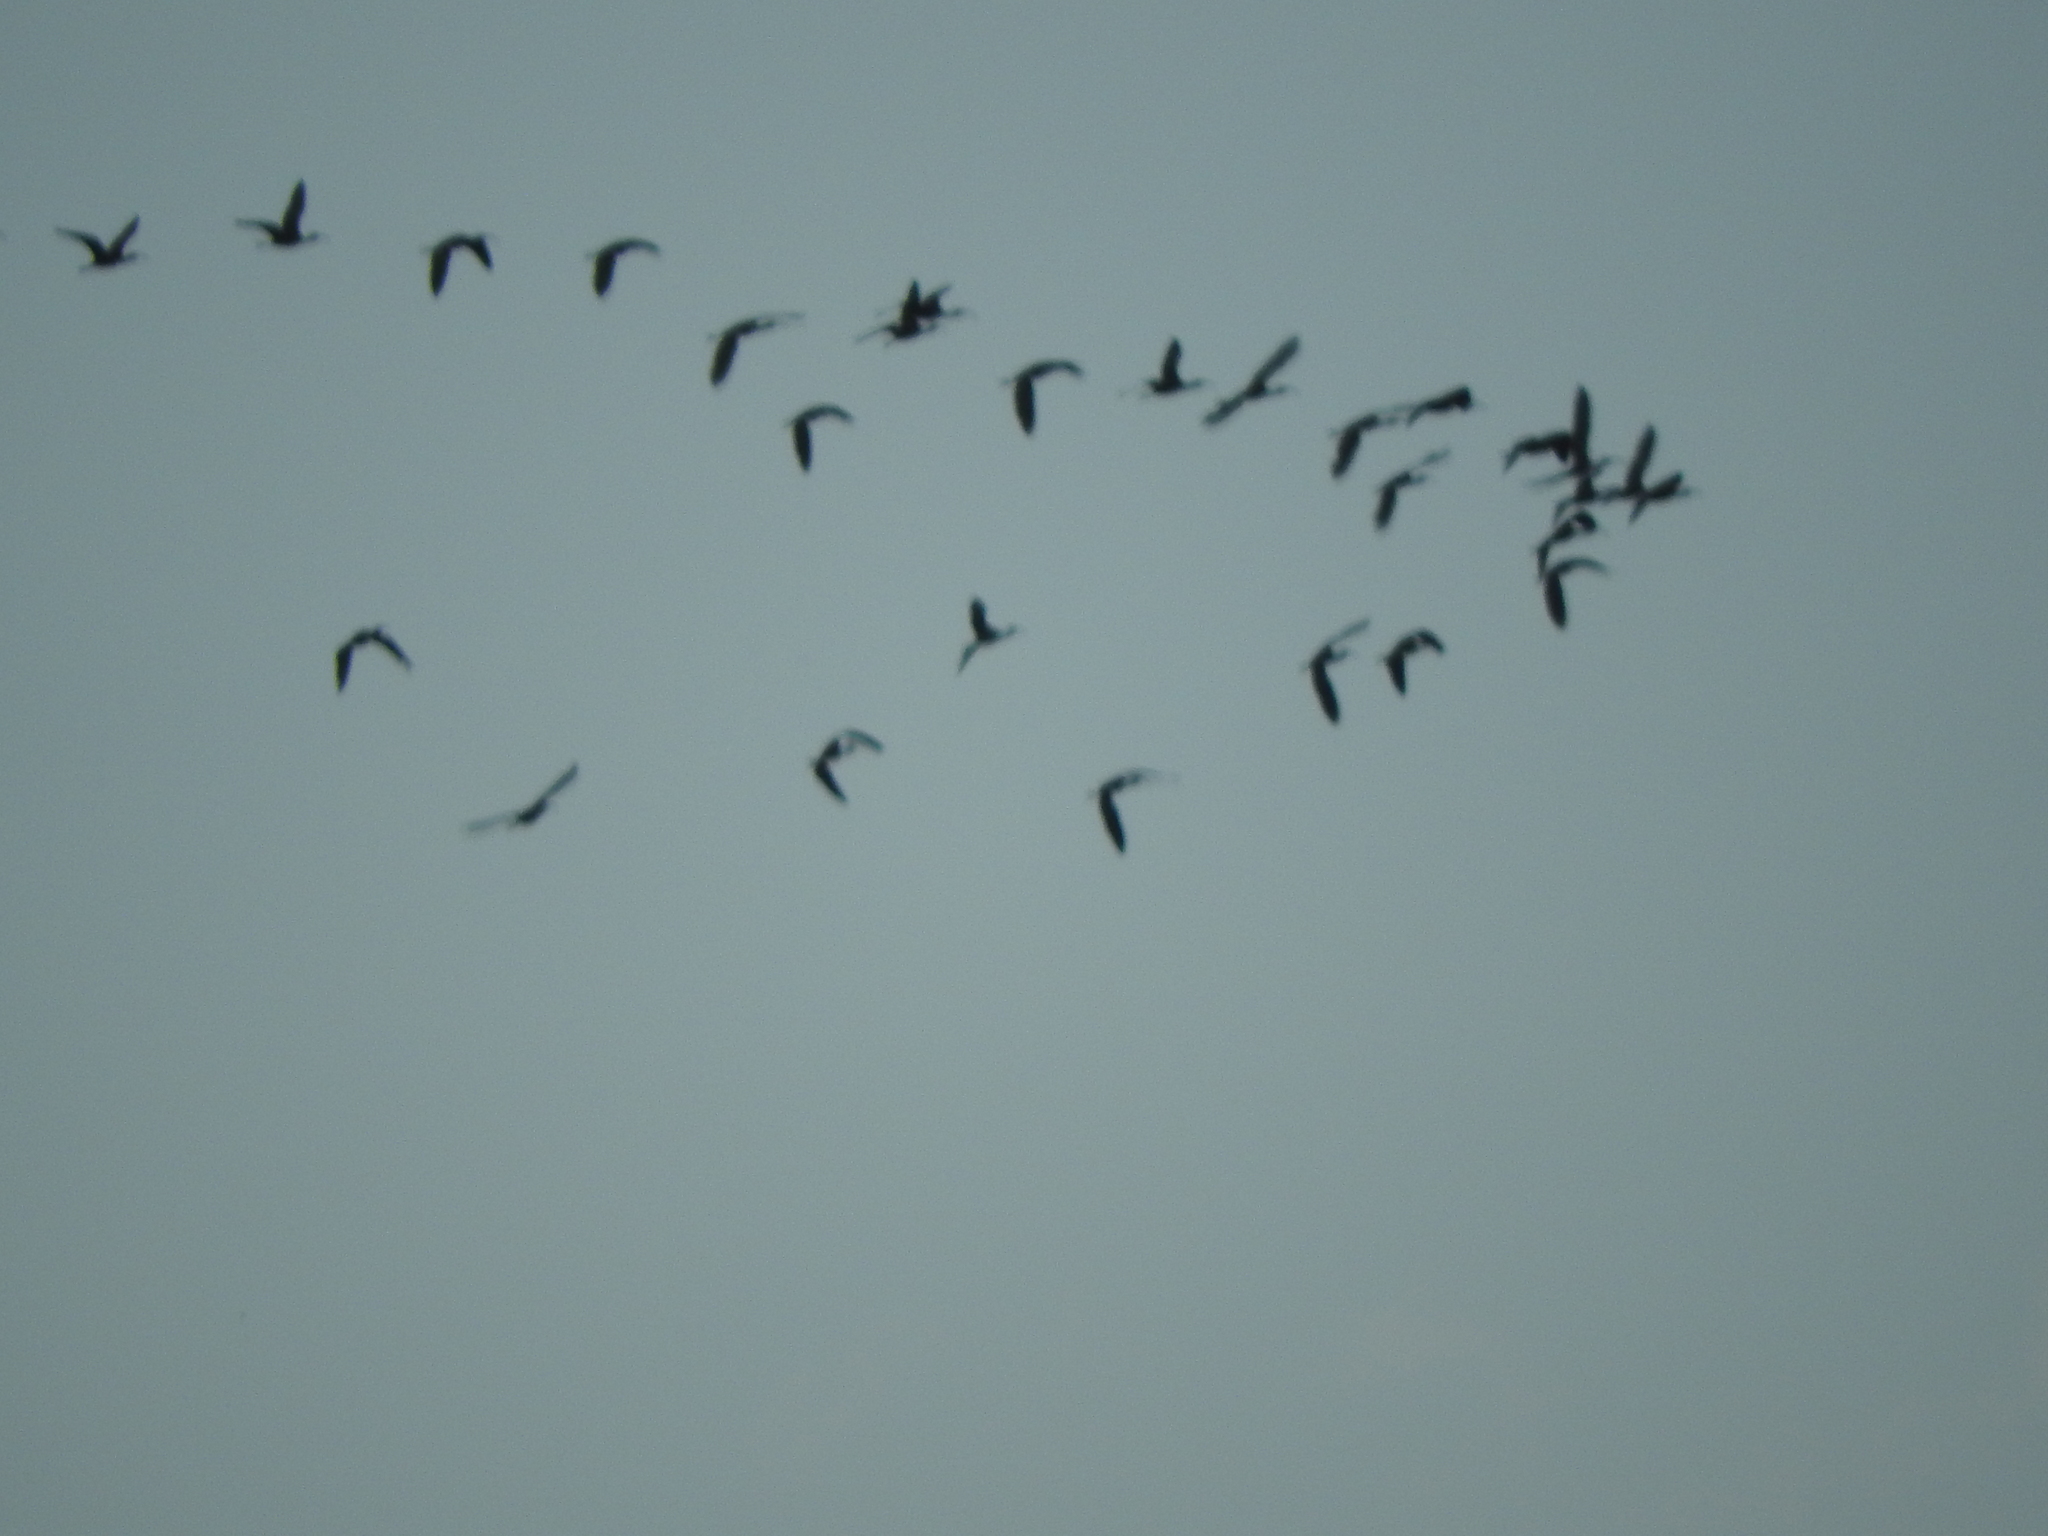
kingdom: Animalia
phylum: Chordata
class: Aves
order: Pelecaniformes
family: Threskiornithidae
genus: Plegadis
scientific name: Plegadis chihi
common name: White-faced ibis
